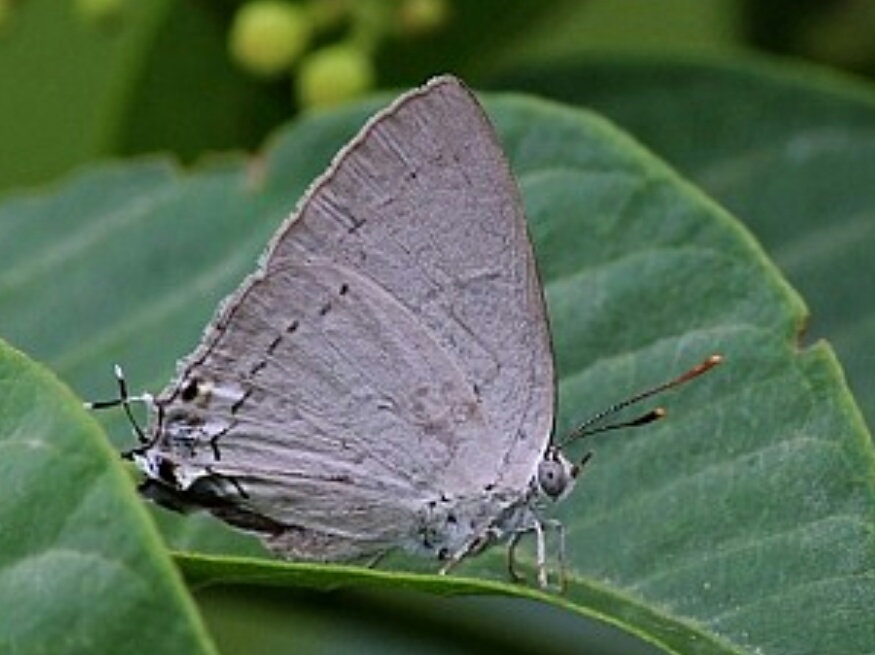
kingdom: Animalia
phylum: Arthropoda
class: Insecta
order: Lepidoptera
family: Lycaenidae
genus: Tajuria
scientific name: Tajuria jehana
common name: Plains blue royal
